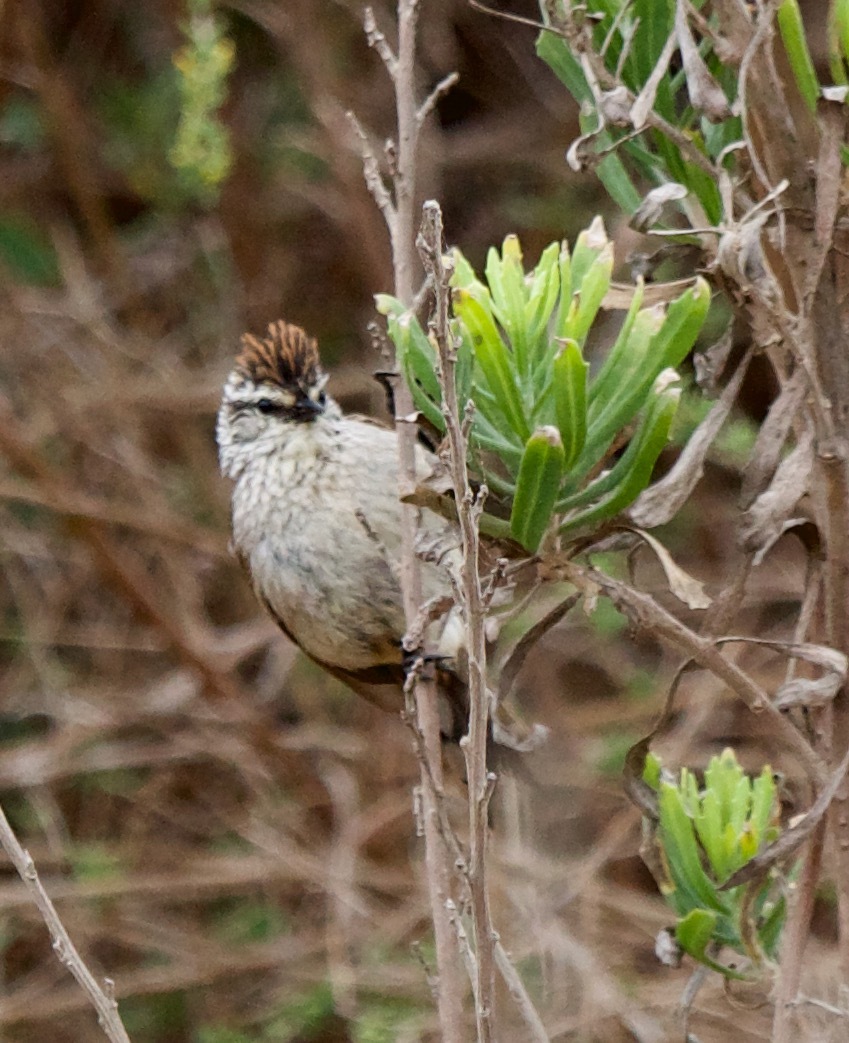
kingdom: Animalia
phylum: Chordata
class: Aves
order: Passeriformes
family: Furnariidae
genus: Leptasthenura
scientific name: Leptasthenura aegithaloides
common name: Plain-mantled tit-spinetail
